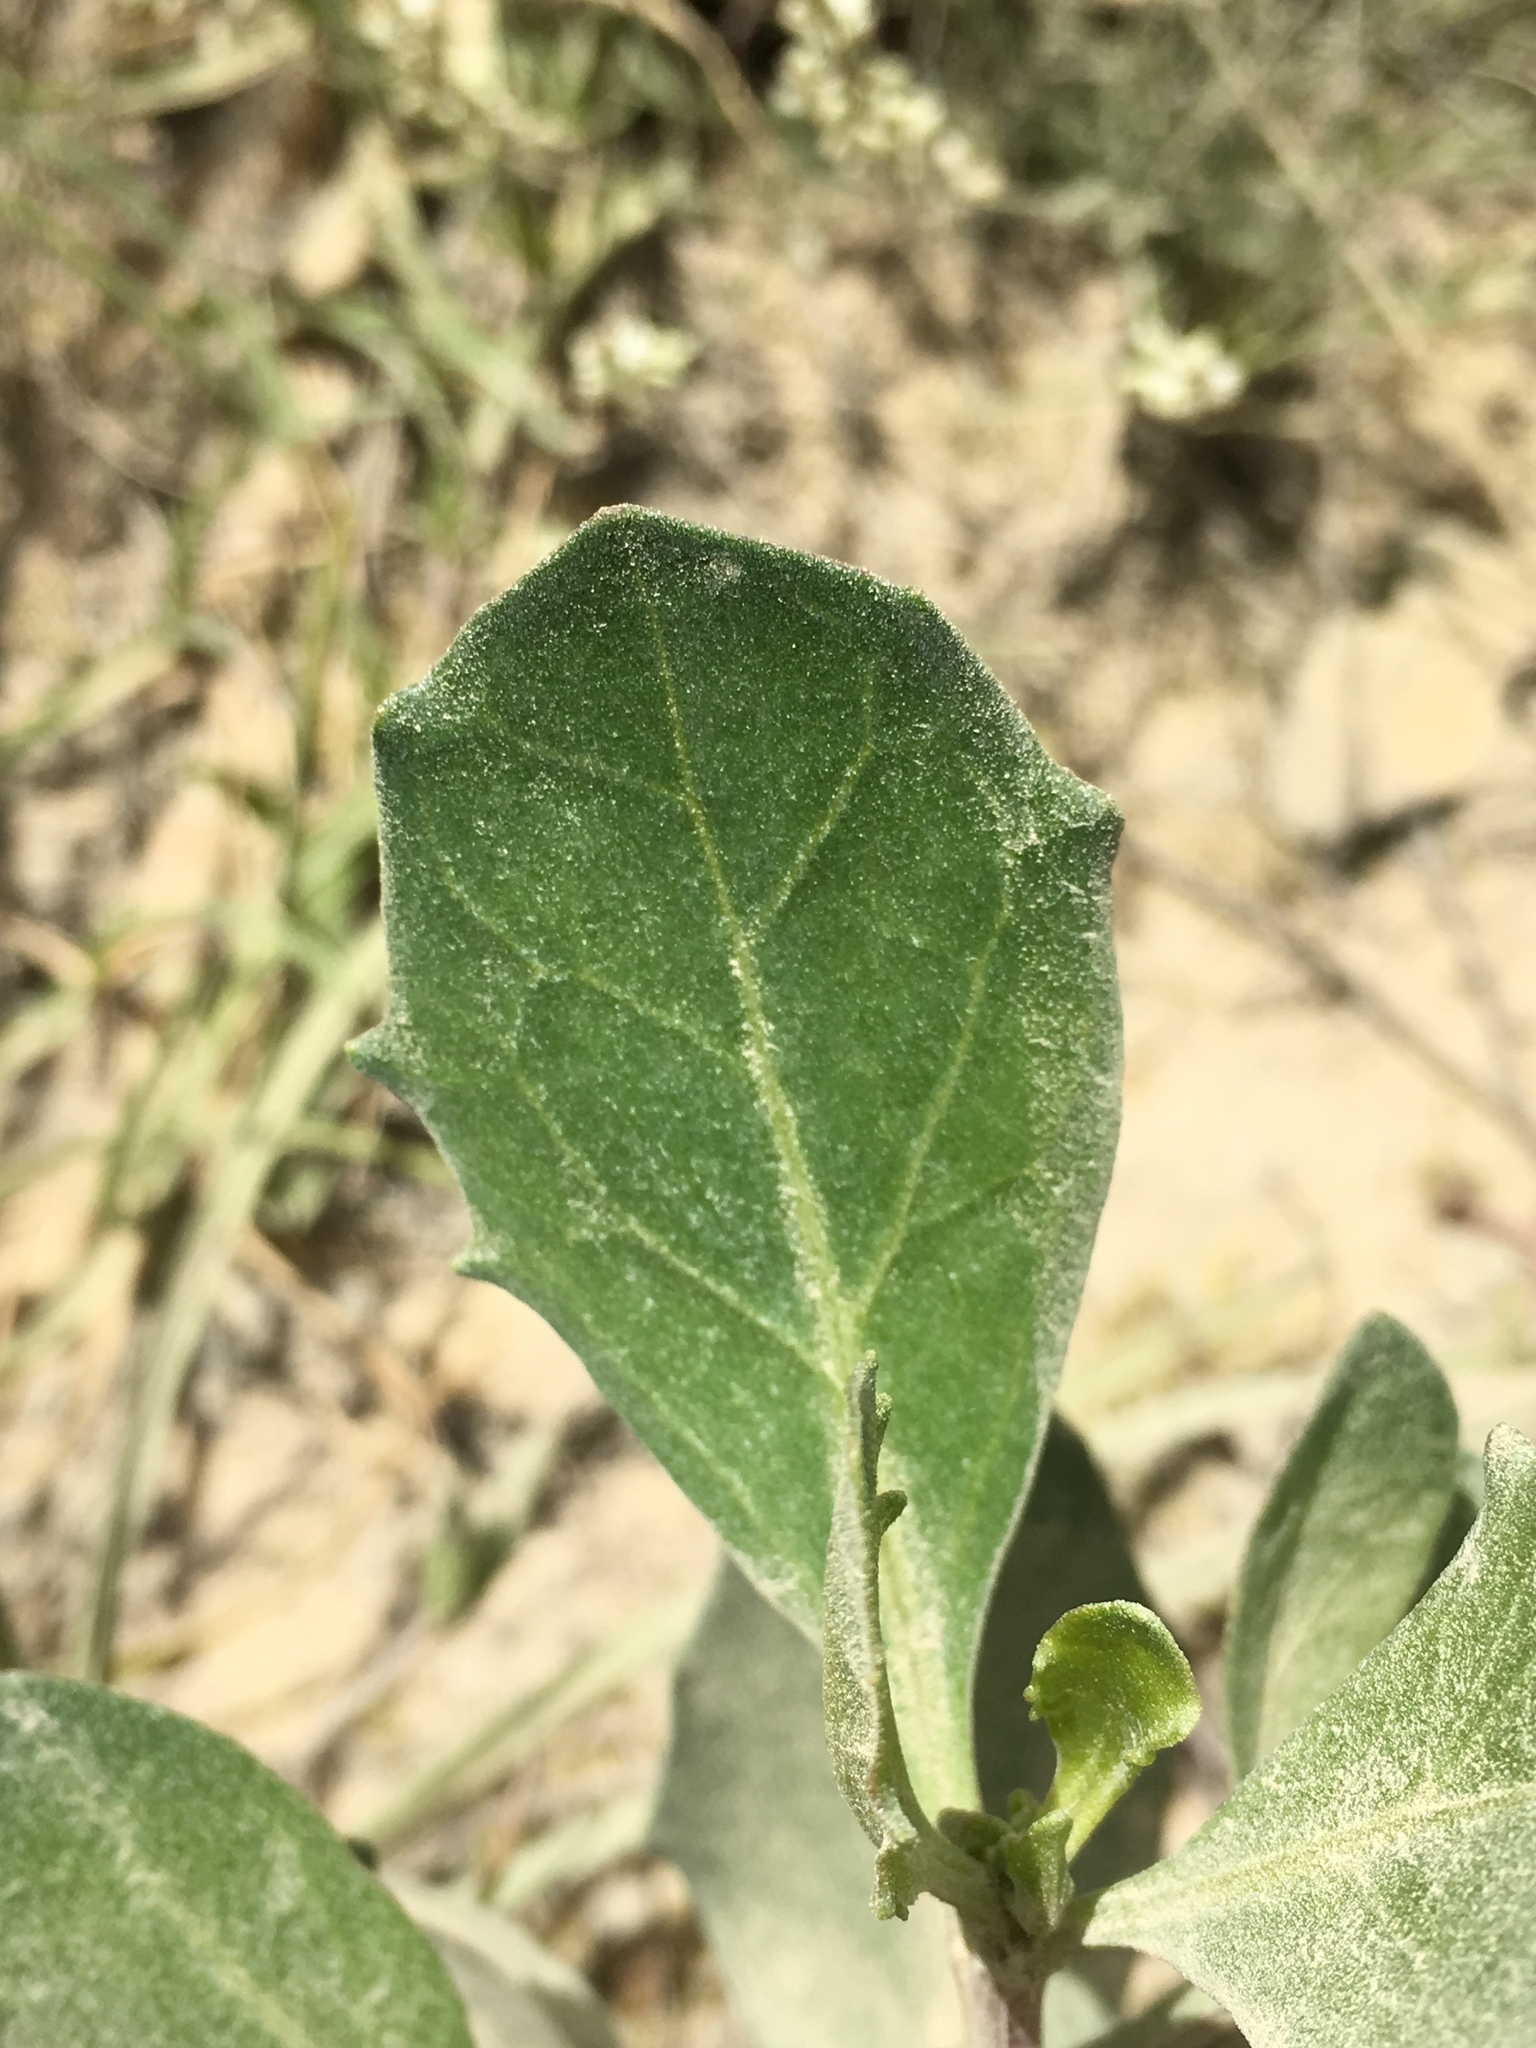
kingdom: Plantae
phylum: Tracheophyta
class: Magnoliopsida
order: Asterales
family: Asteraceae
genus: Baccharis
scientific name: Baccharis macrantha
